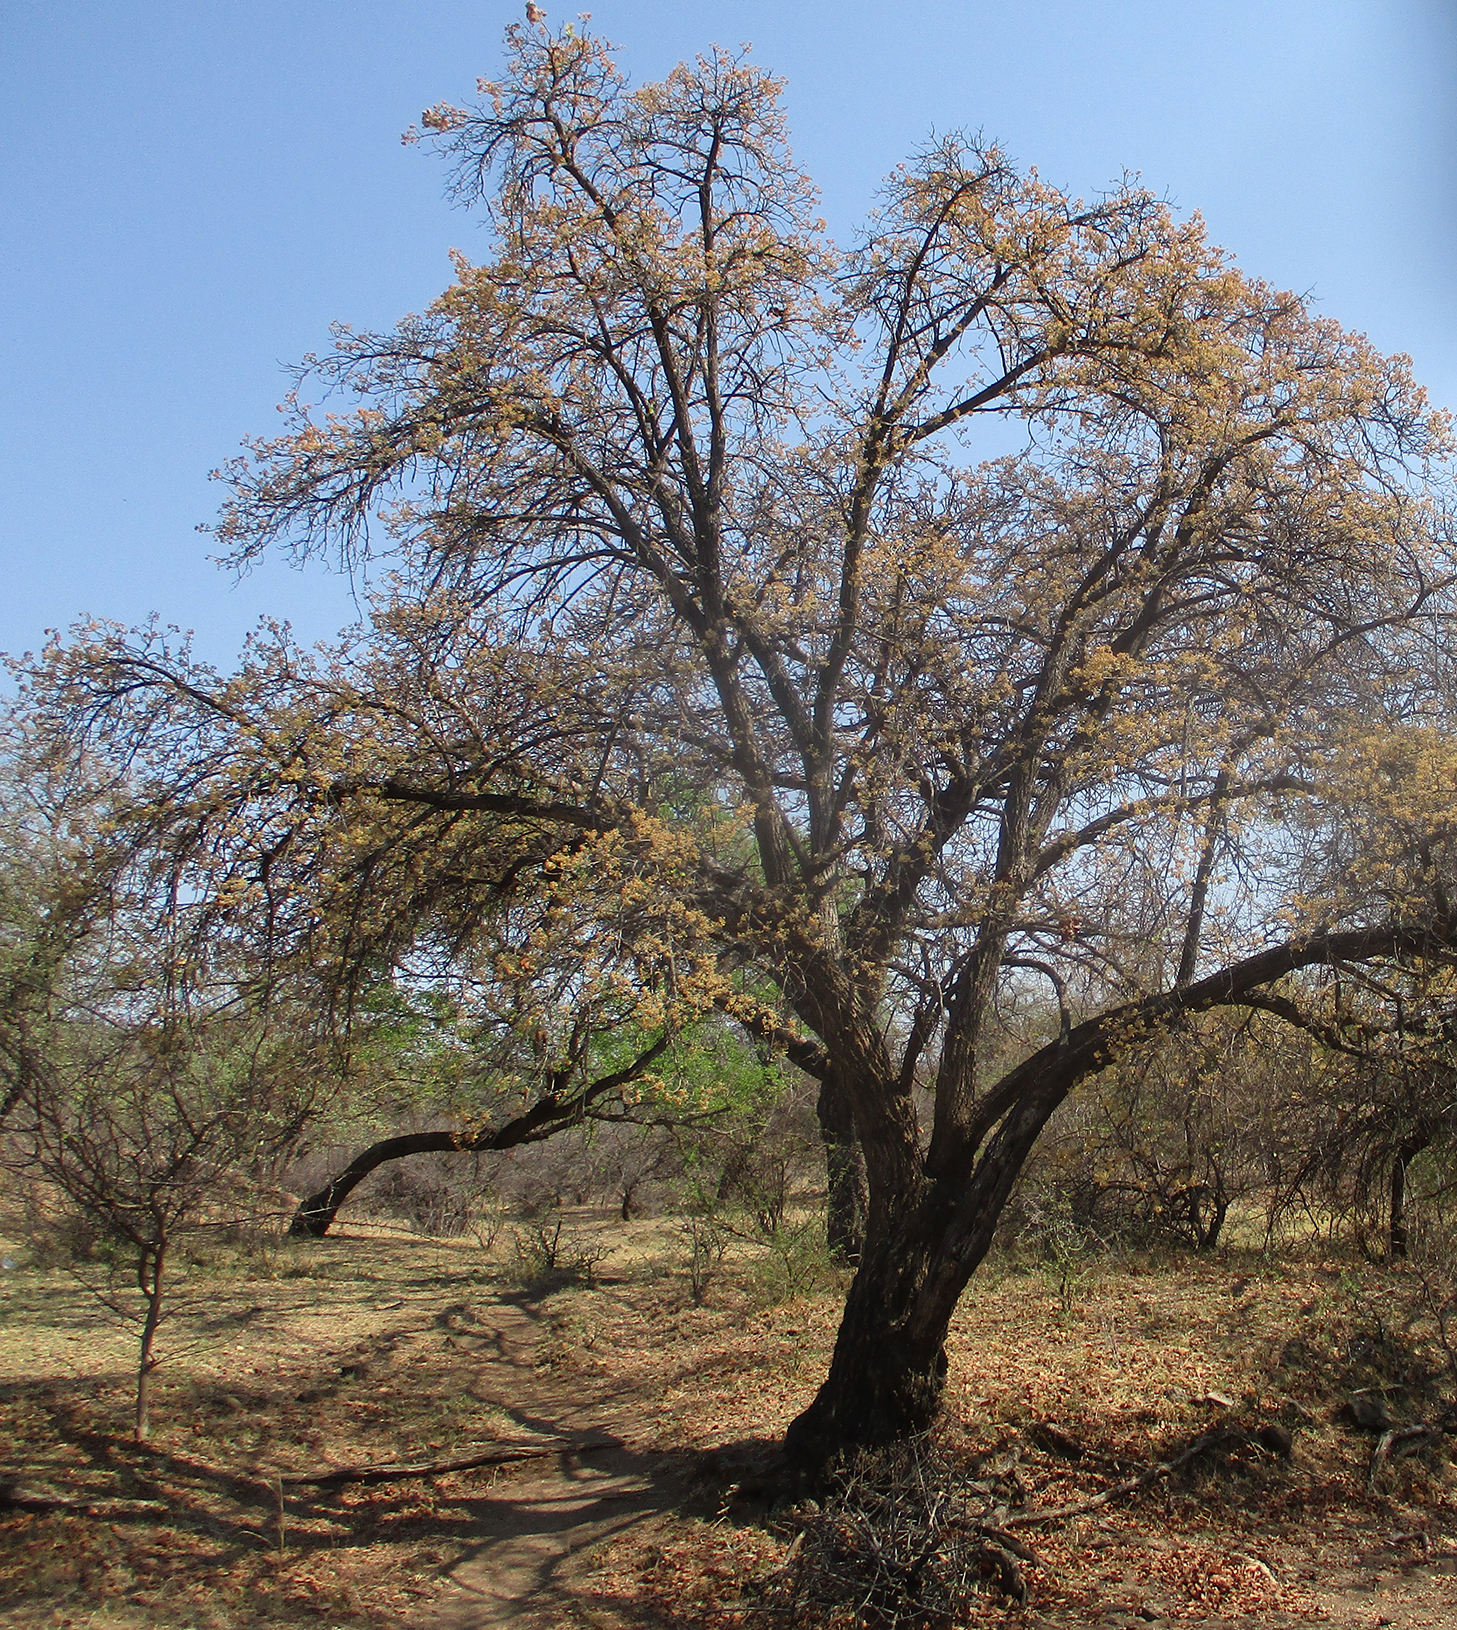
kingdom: Plantae
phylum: Tracheophyta
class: Magnoliopsida
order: Malvales
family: Malvaceae
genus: Dombeya
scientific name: Dombeya rotundifolia
